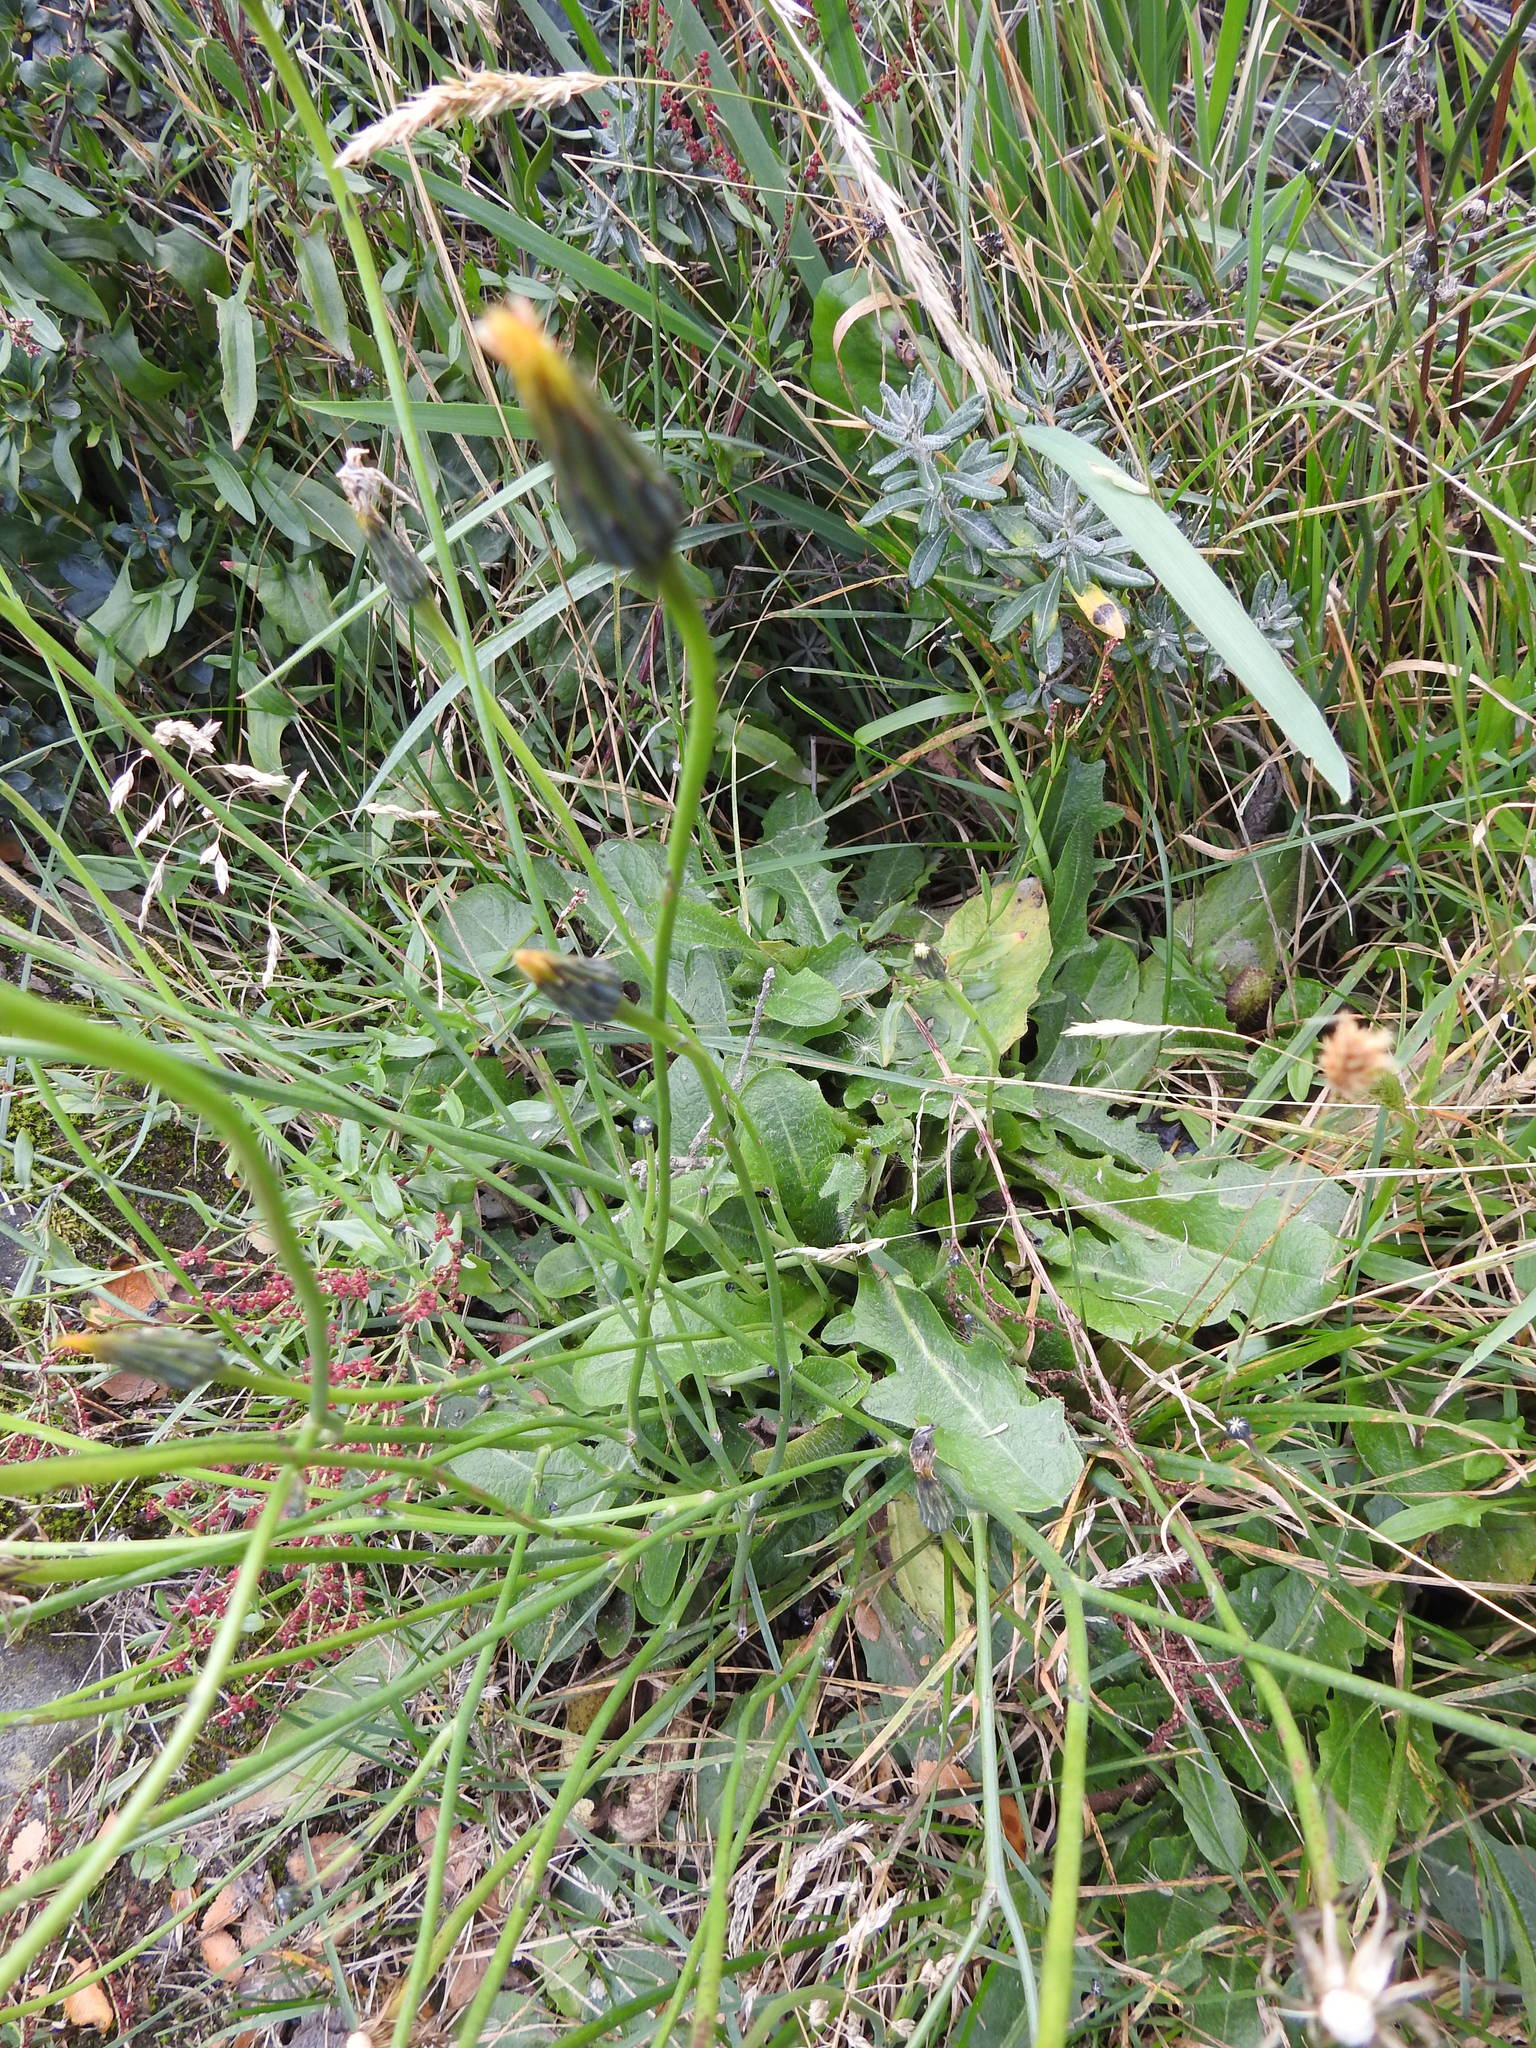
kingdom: Plantae
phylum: Tracheophyta
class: Magnoliopsida
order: Asterales
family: Asteraceae
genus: Hypochaeris
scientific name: Hypochaeris radicata
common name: Flatweed
